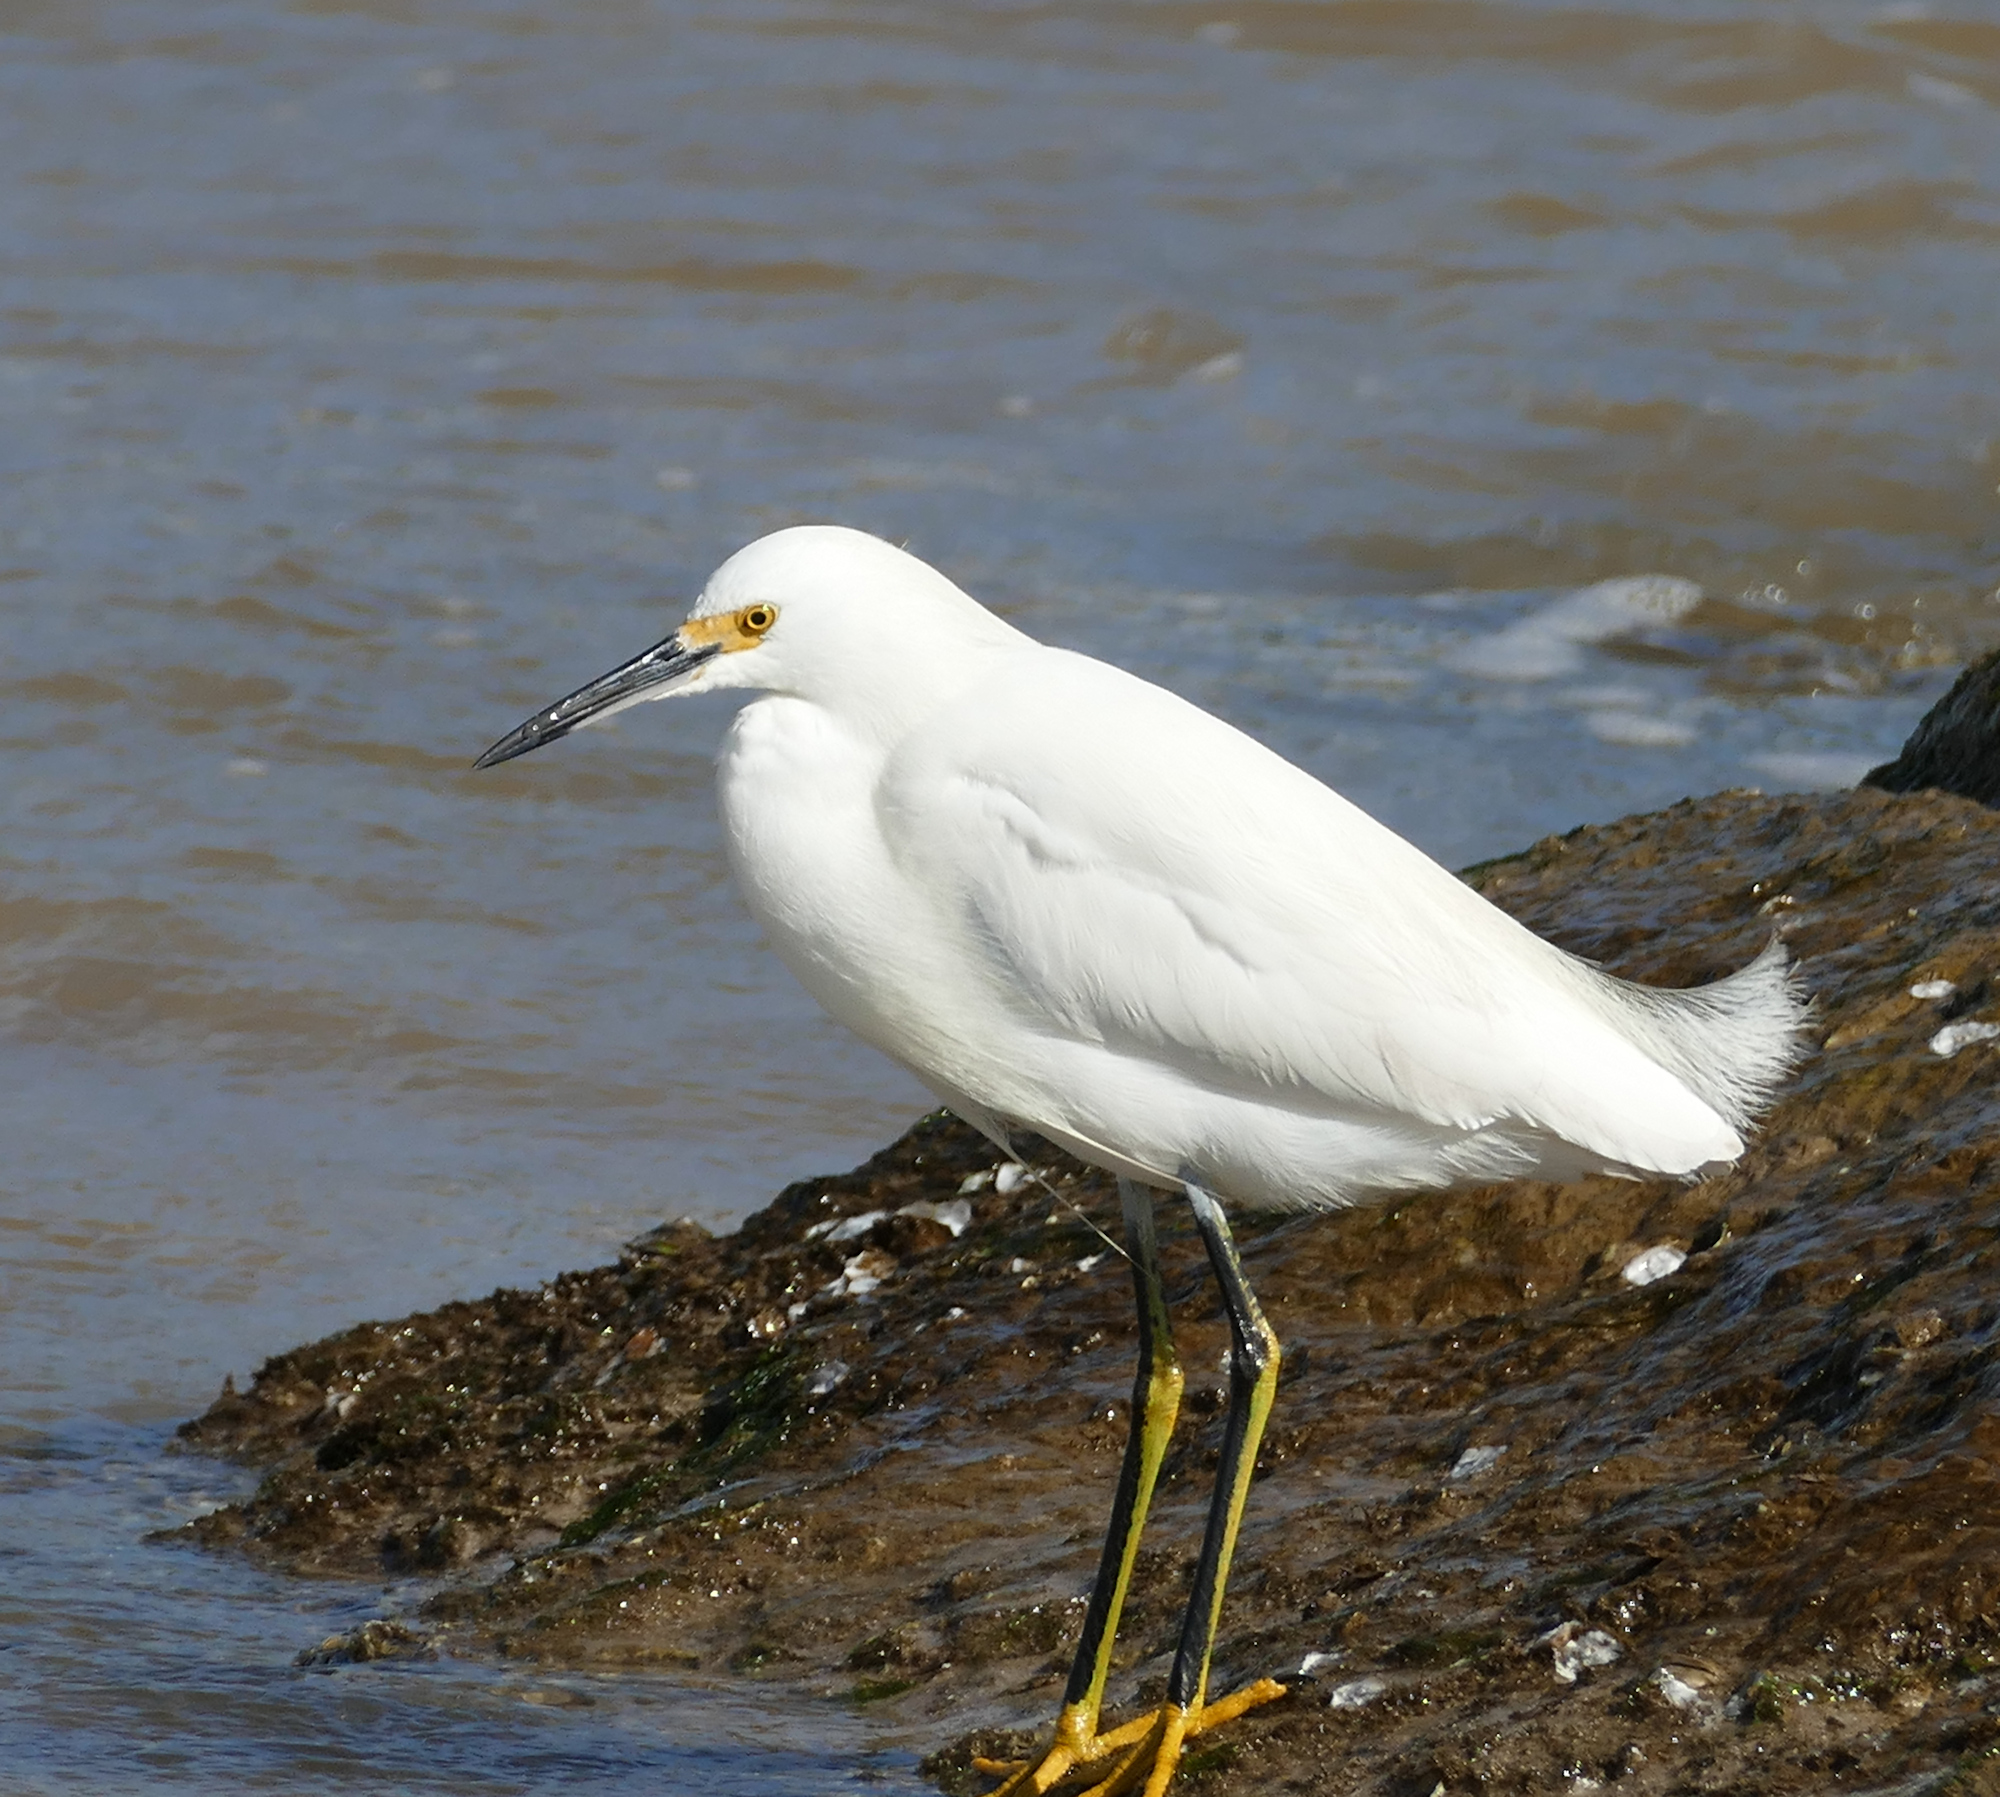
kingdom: Animalia
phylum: Chordata
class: Aves
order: Pelecaniformes
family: Ardeidae
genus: Egretta
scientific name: Egretta thula
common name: Snowy egret
